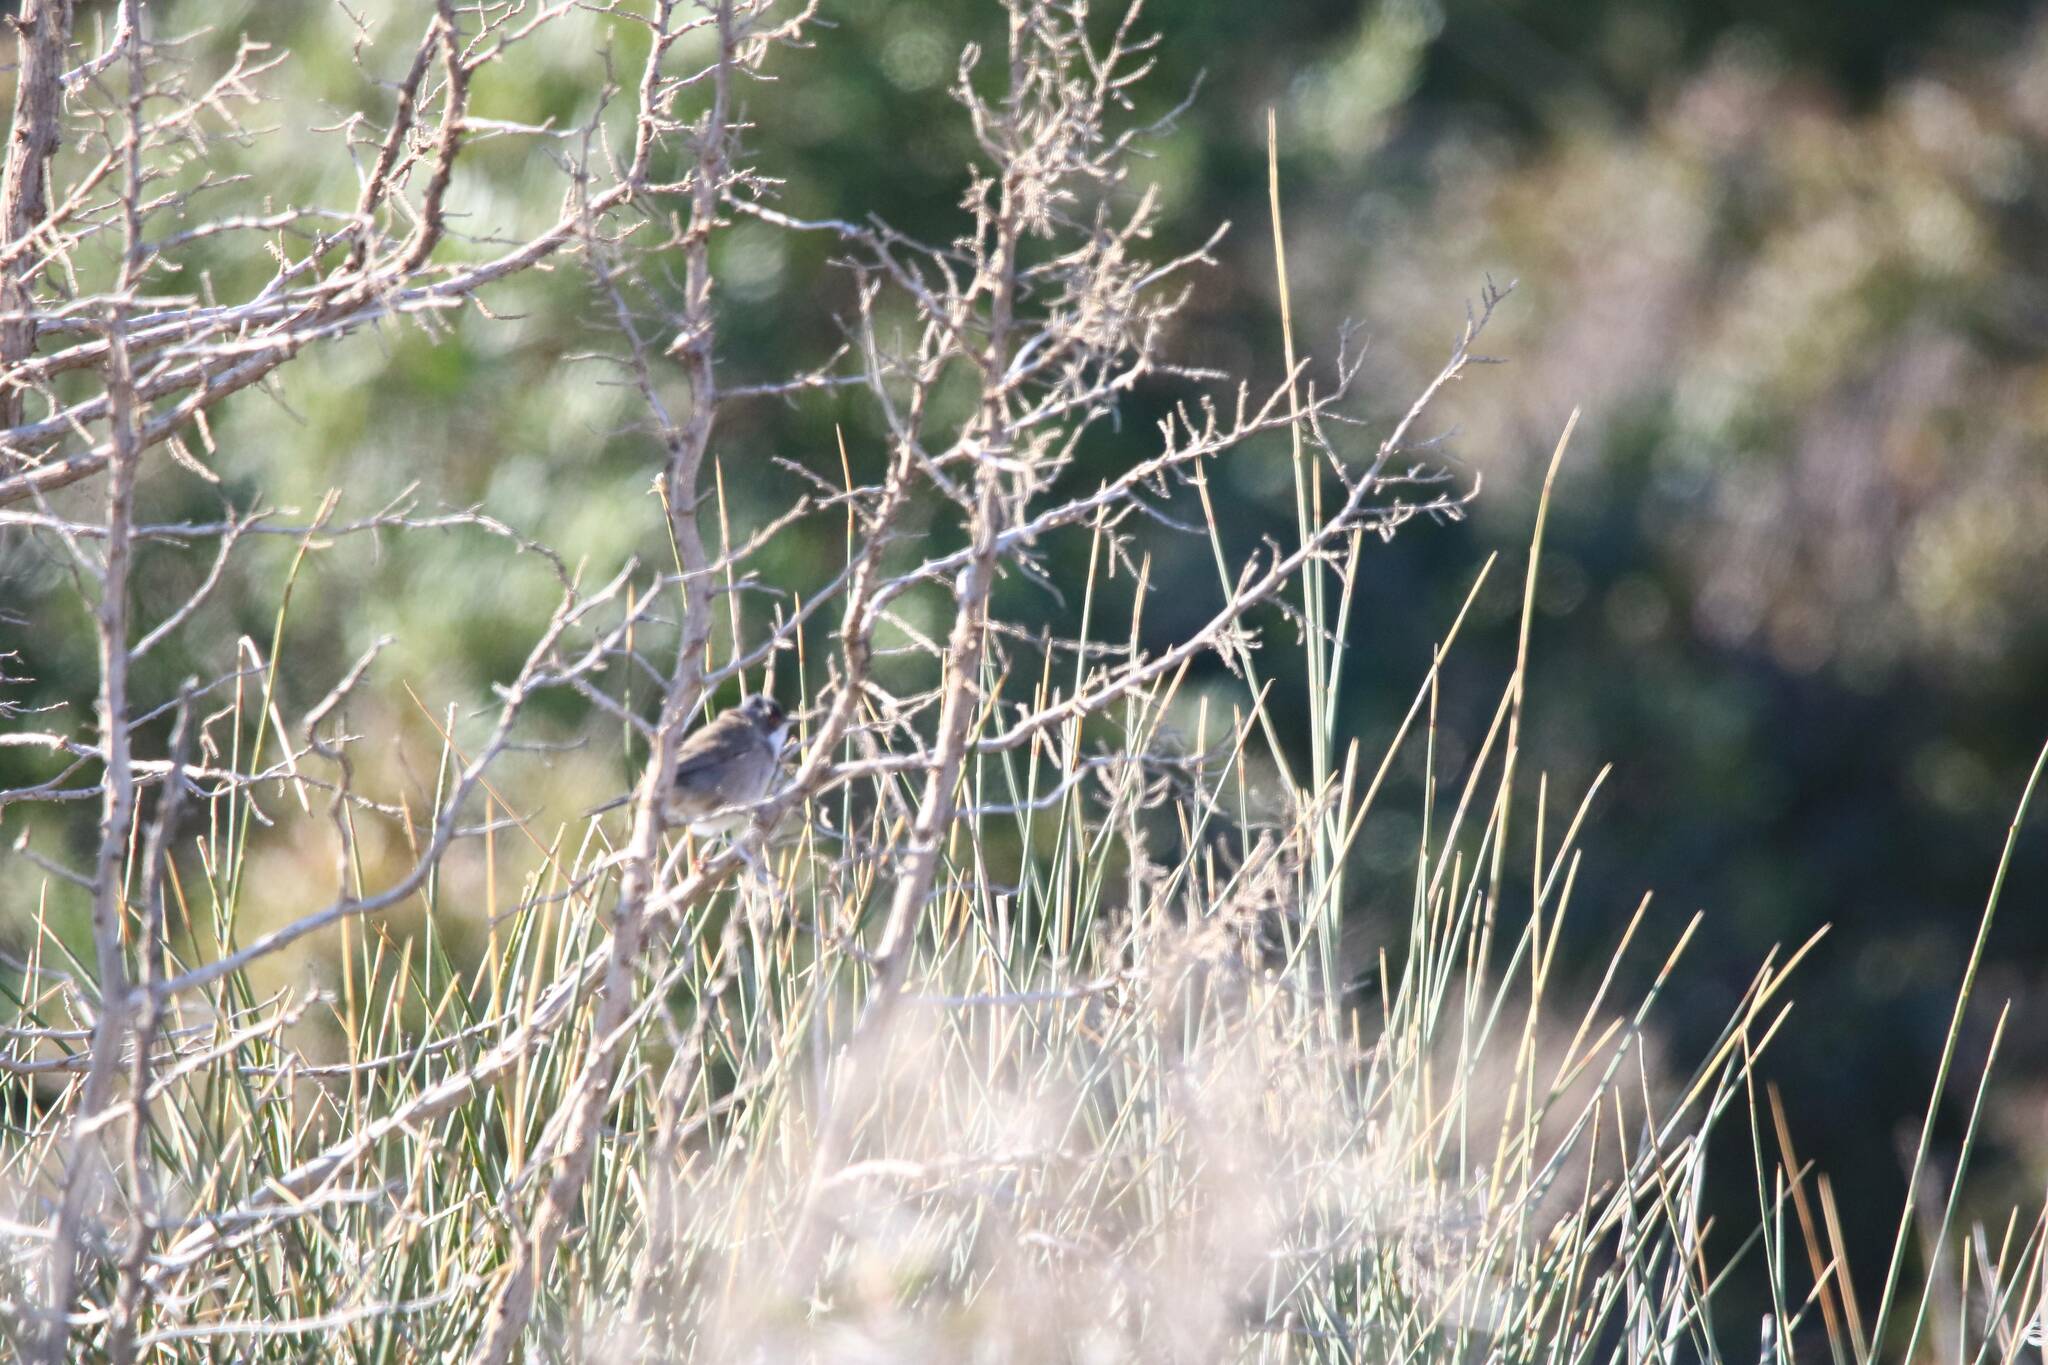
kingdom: Animalia
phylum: Chordata
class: Aves
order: Passeriformes
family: Sylviidae
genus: Curruca
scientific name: Curruca melanocephala
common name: Sardinian warbler
